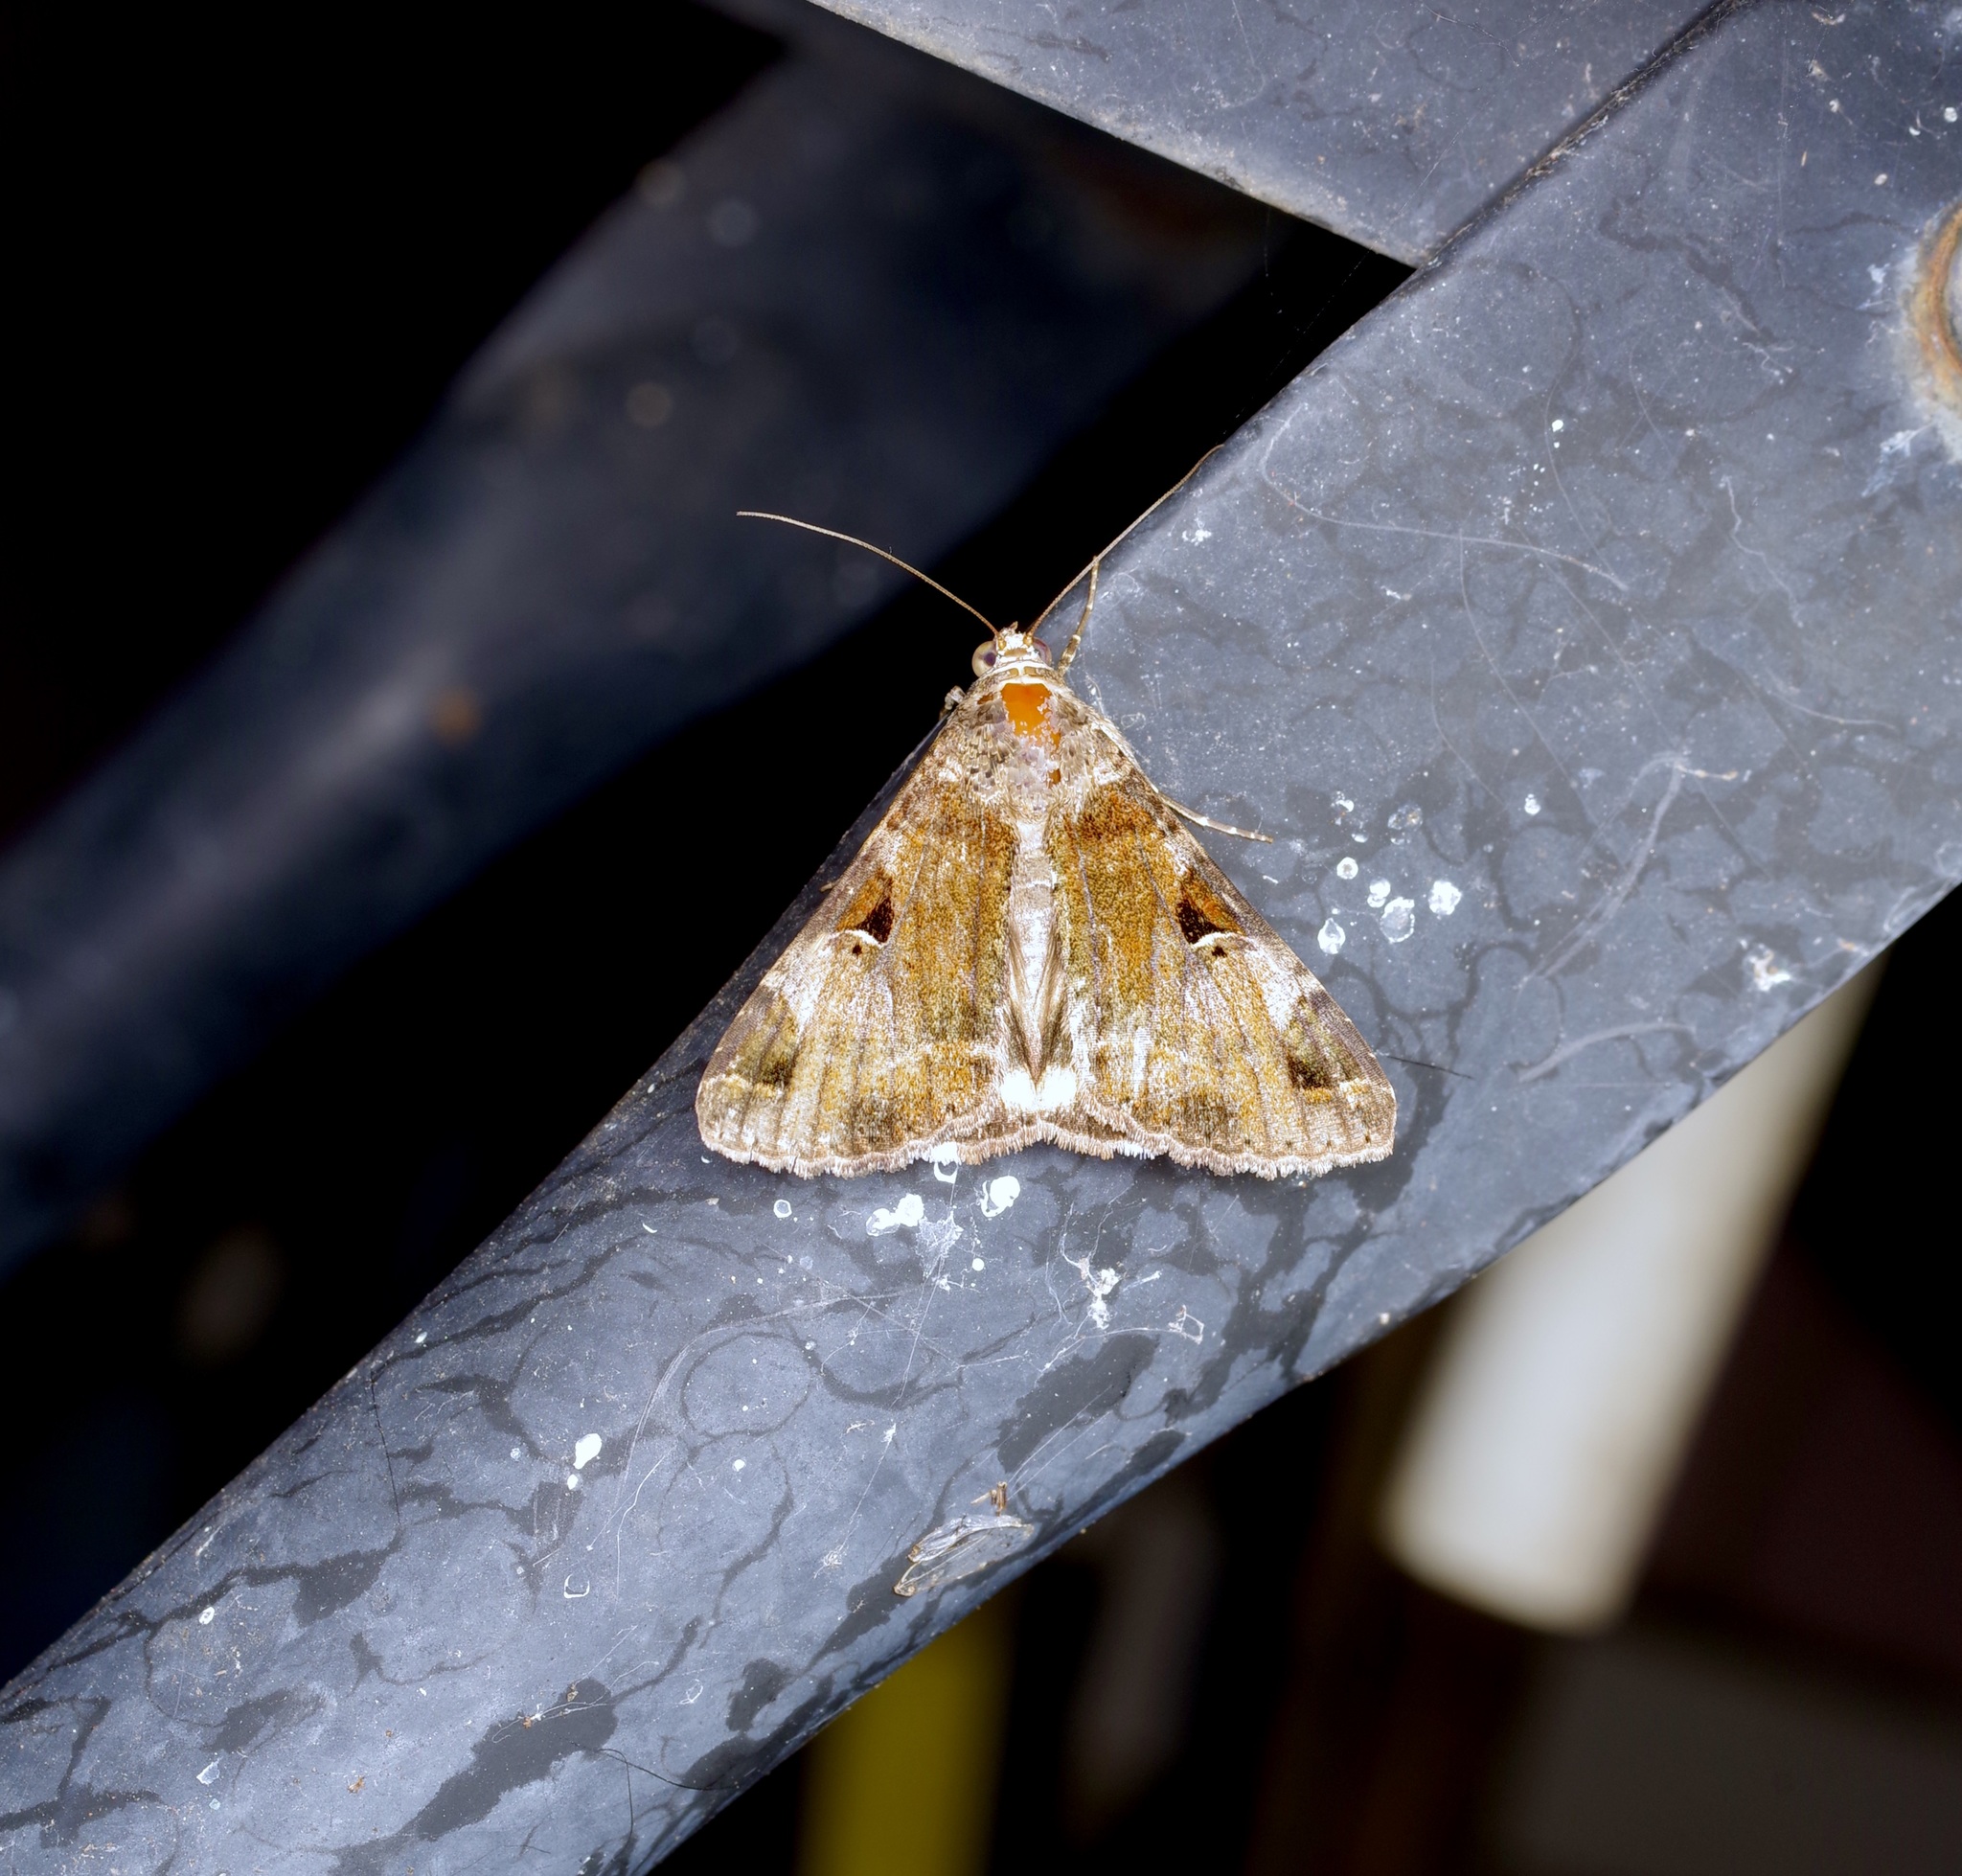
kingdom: Animalia
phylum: Arthropoda
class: Insecta
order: Lepidoptera
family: Erebidae
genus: Melipotis
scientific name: Melipotis perpendicularis
